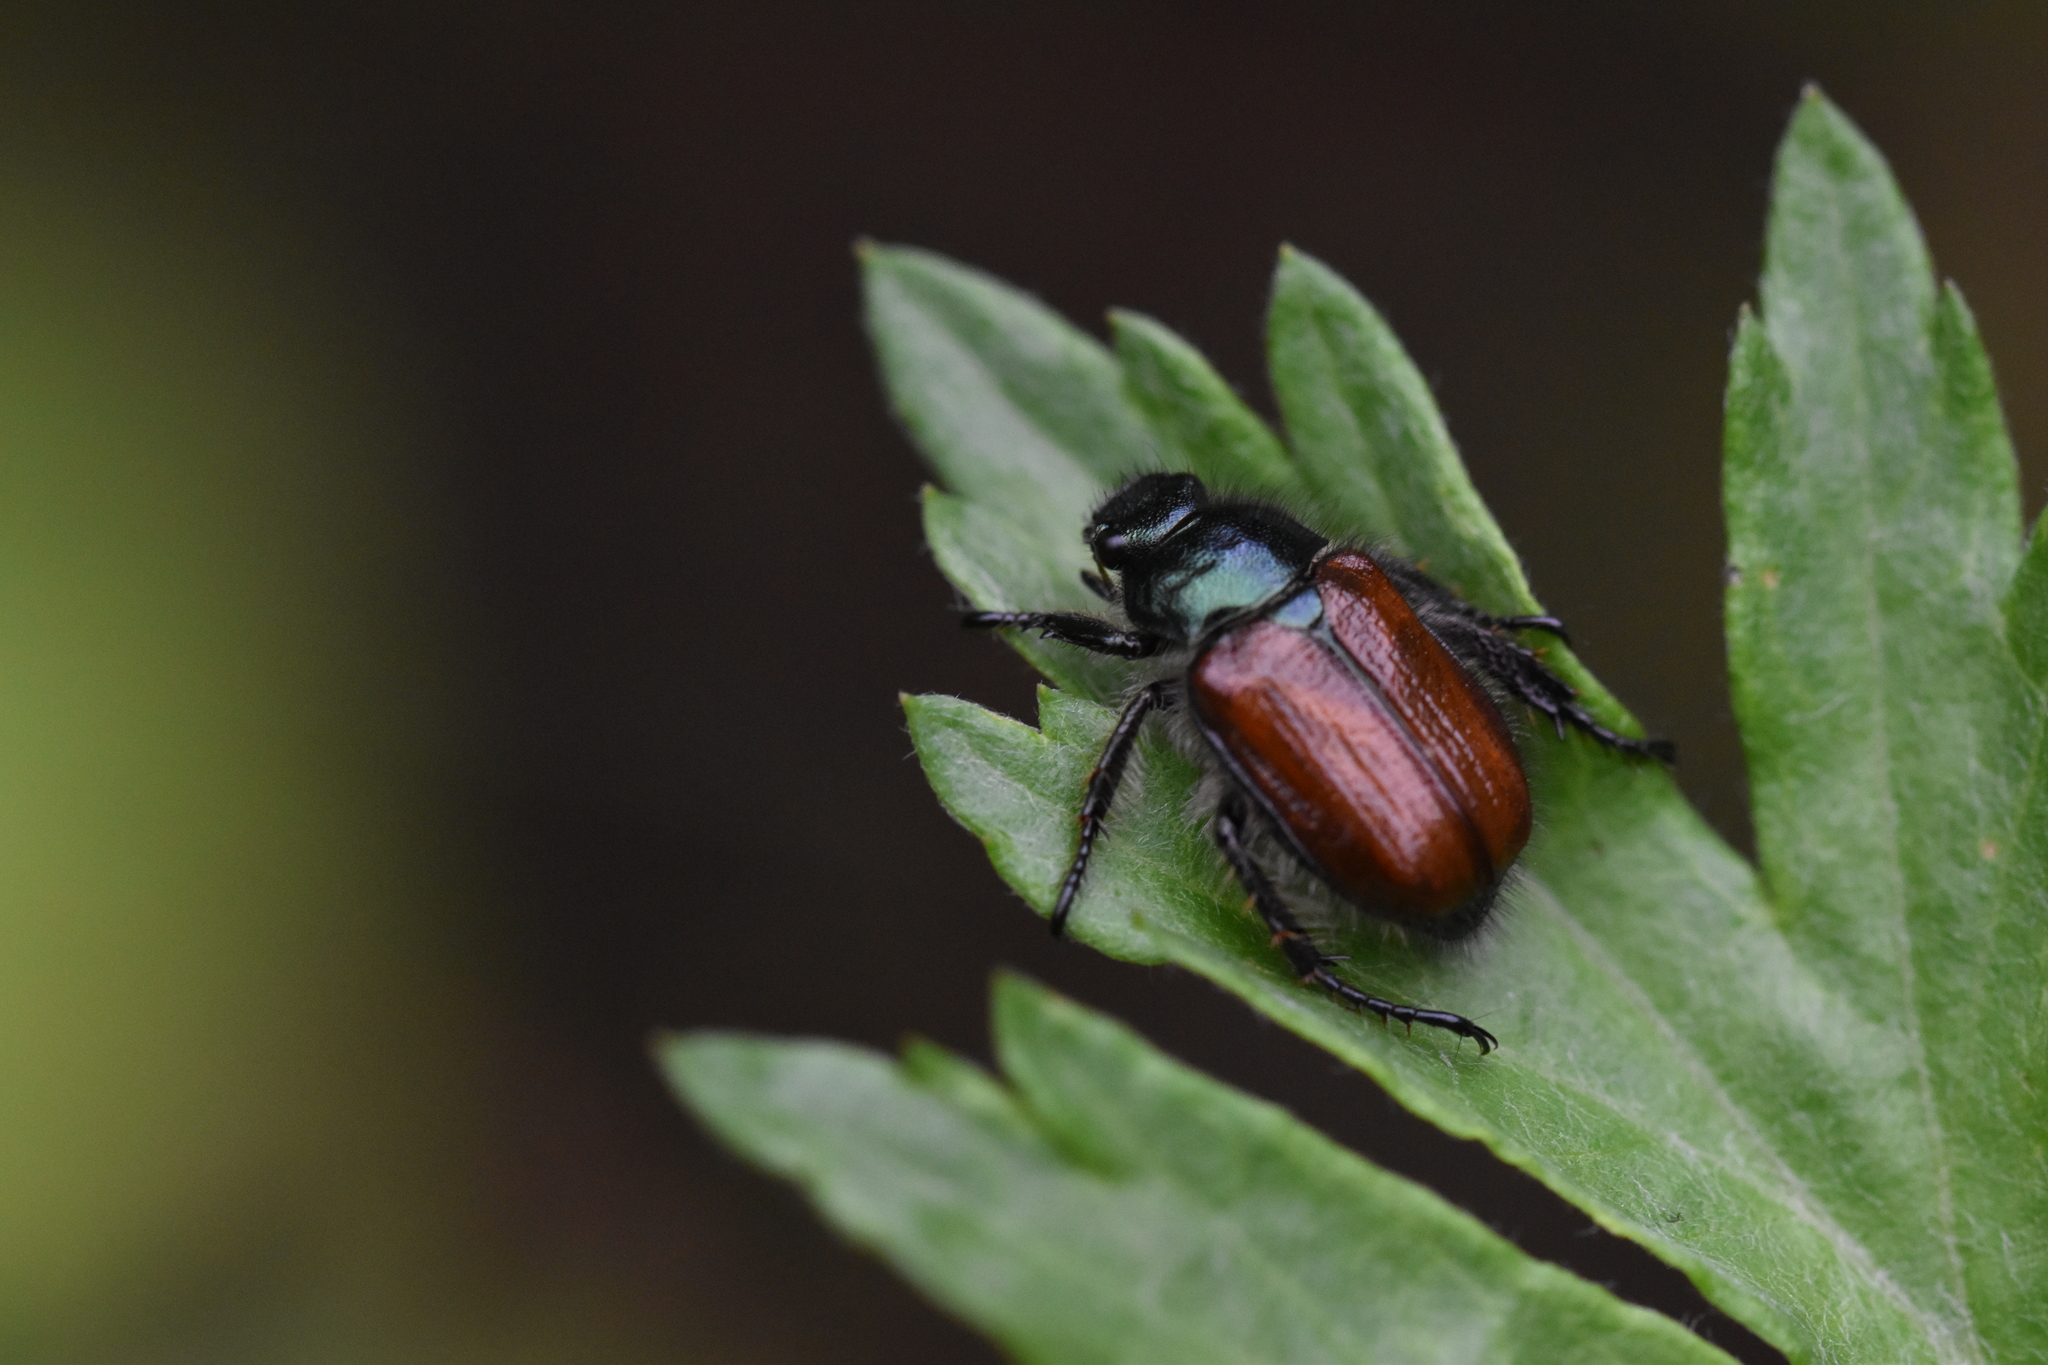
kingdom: Animalia
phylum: Arthropoda
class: Insecta
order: Coleoptera
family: Scarabaeidae
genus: Phyllopertha
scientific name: Phyllopertha horticola
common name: Garden chafer
